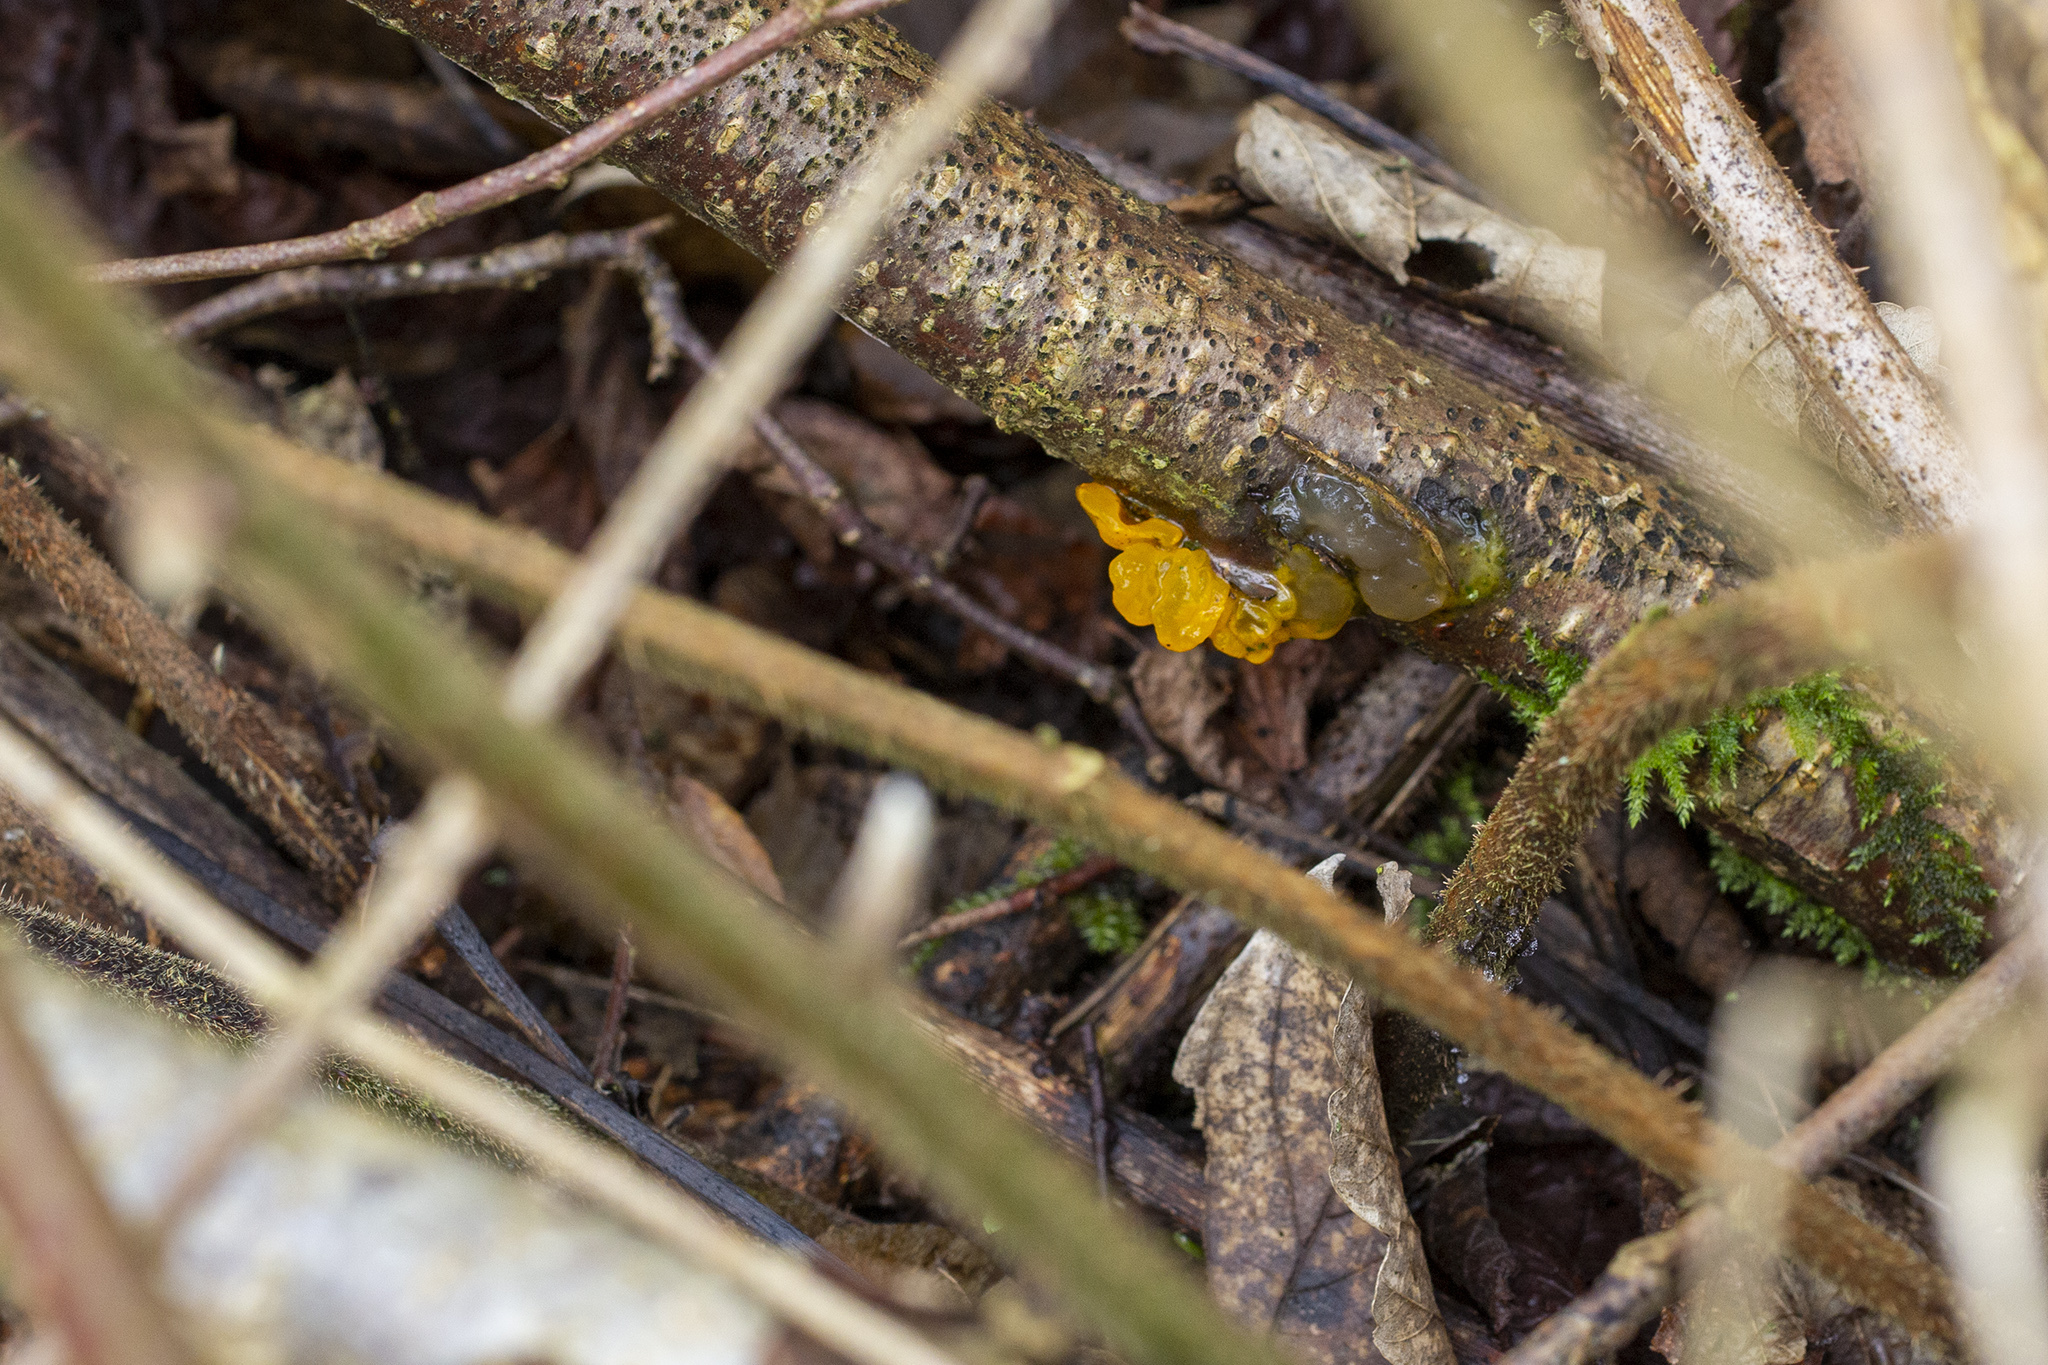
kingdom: Fungi
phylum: Basidiomycota
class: Tremellomycetes
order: Tremellales
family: Tremellaceae
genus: Tremella
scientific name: Tremella mesenterica
